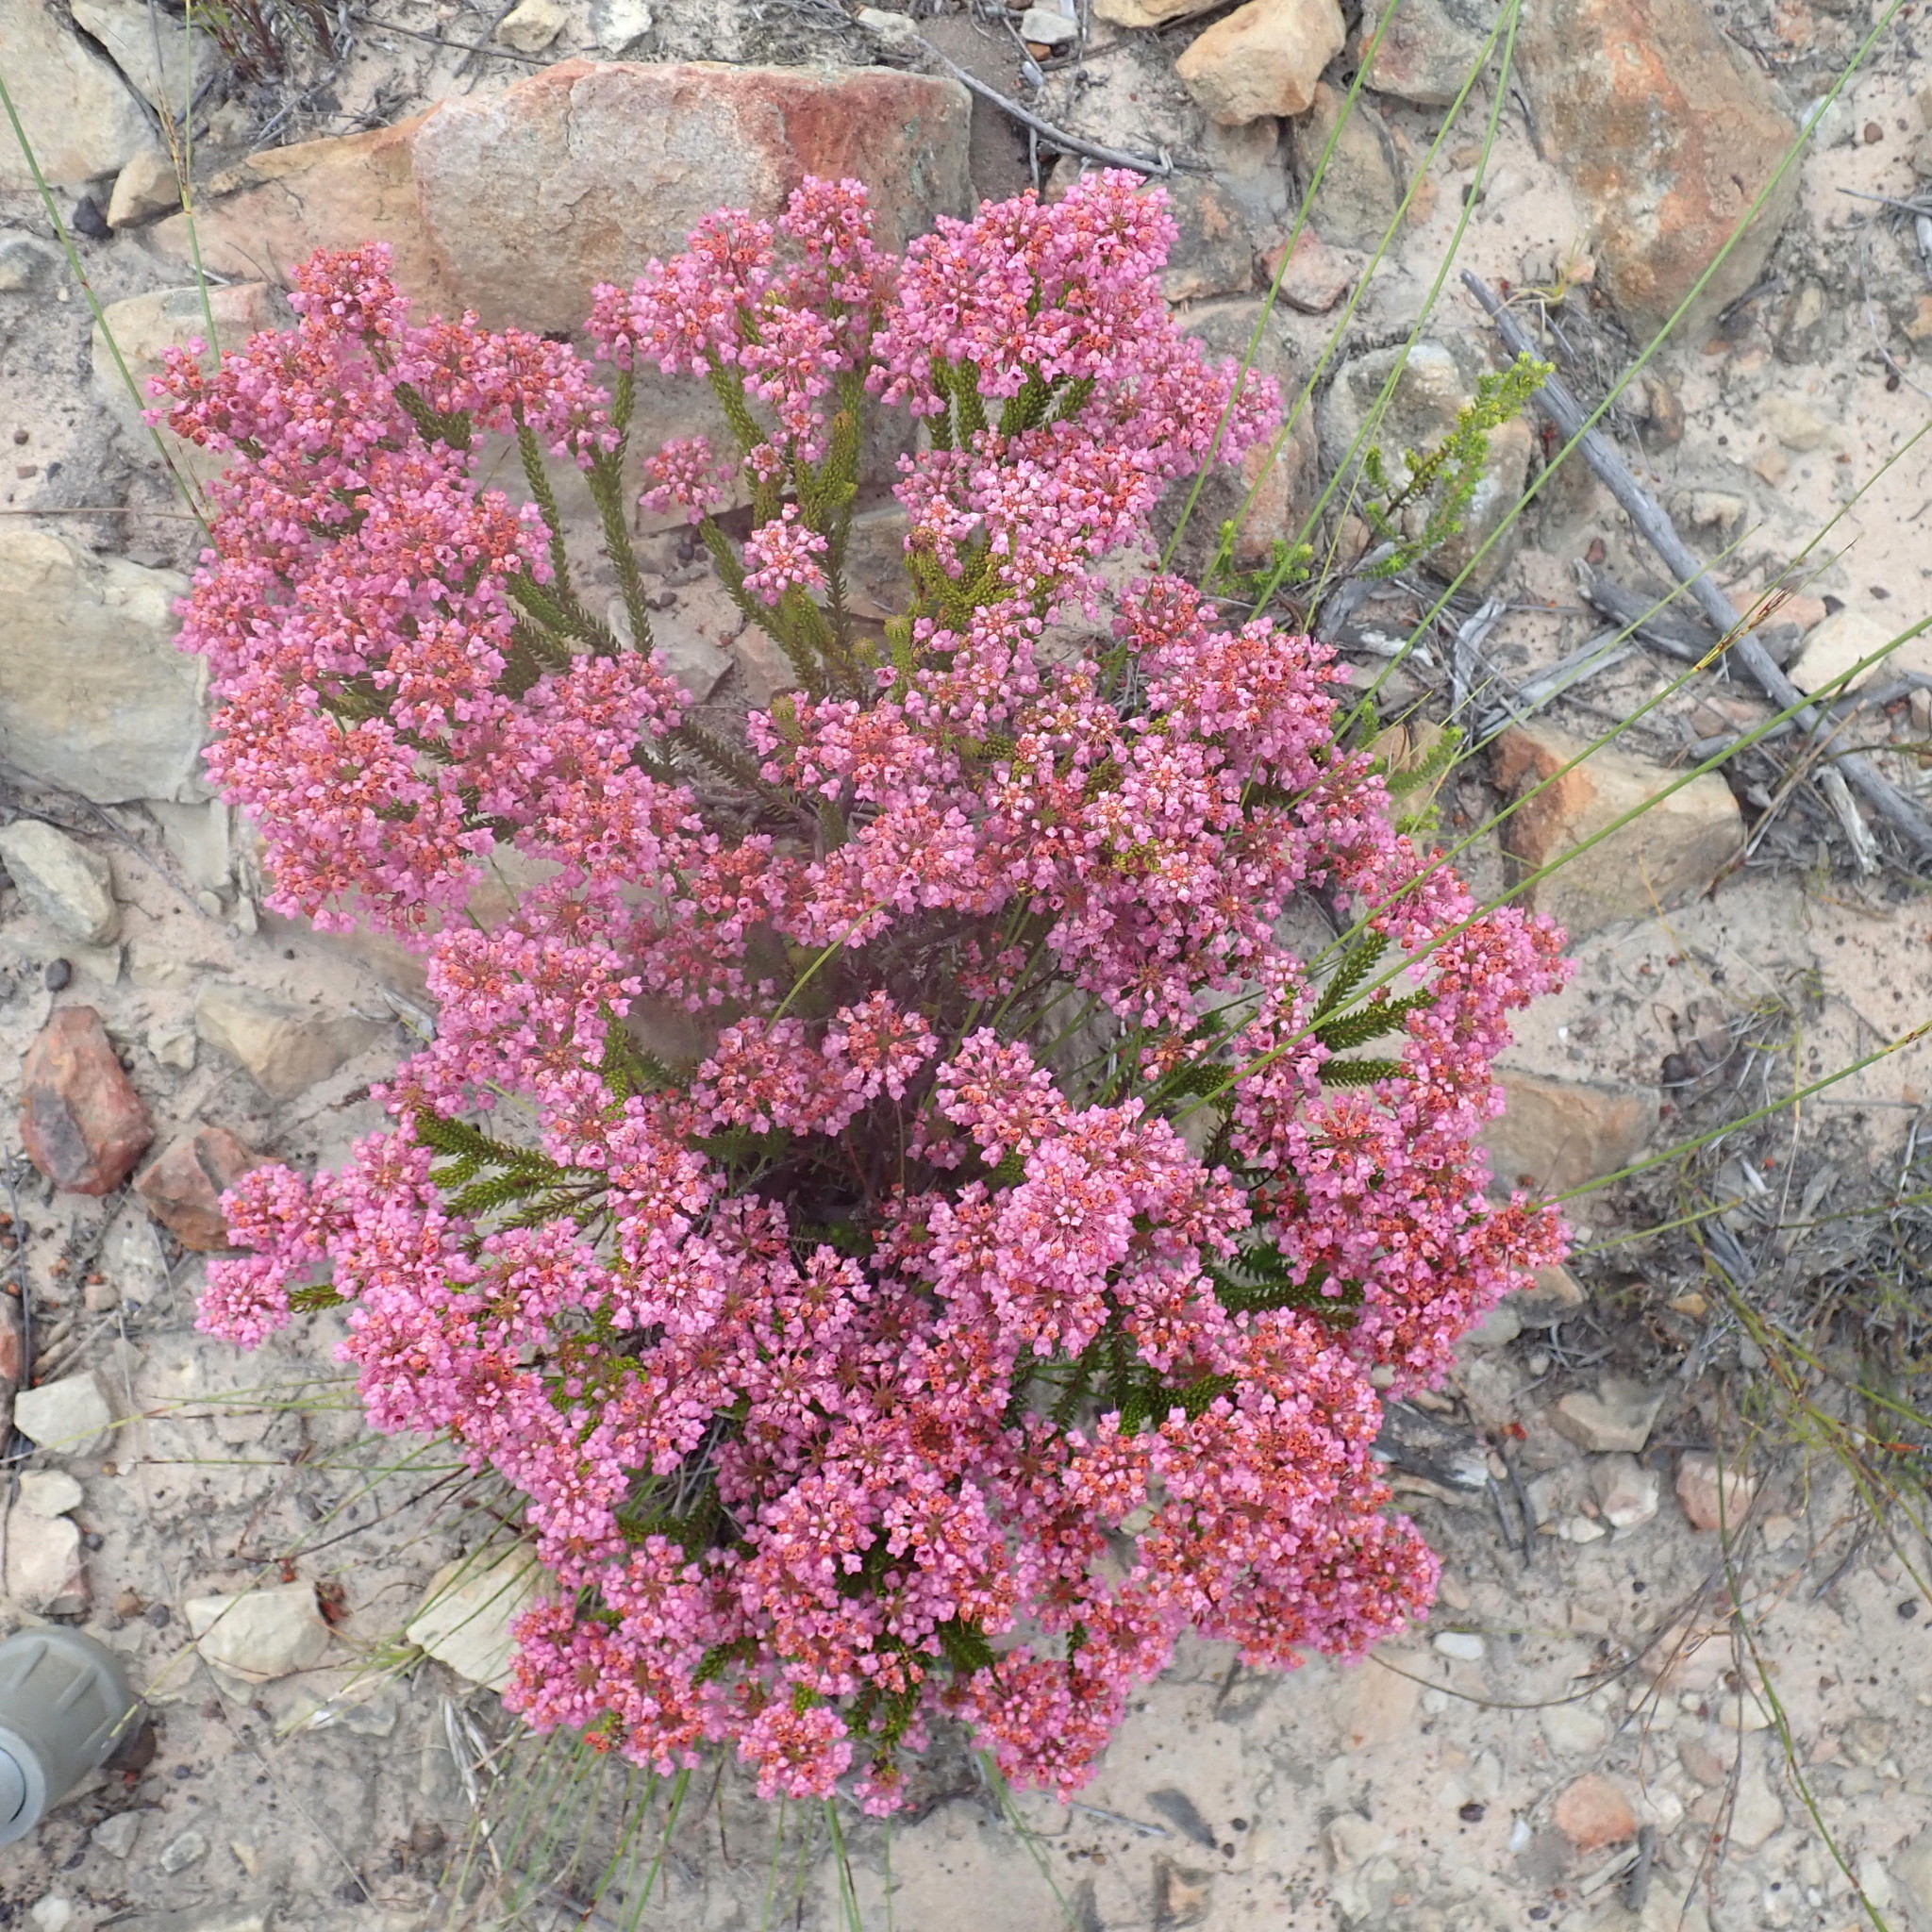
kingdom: Plantae
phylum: Tracheophyta
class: Magnoliopsida
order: Ericales
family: Ericaceae
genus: Erica
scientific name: Erica seriphiifolia
